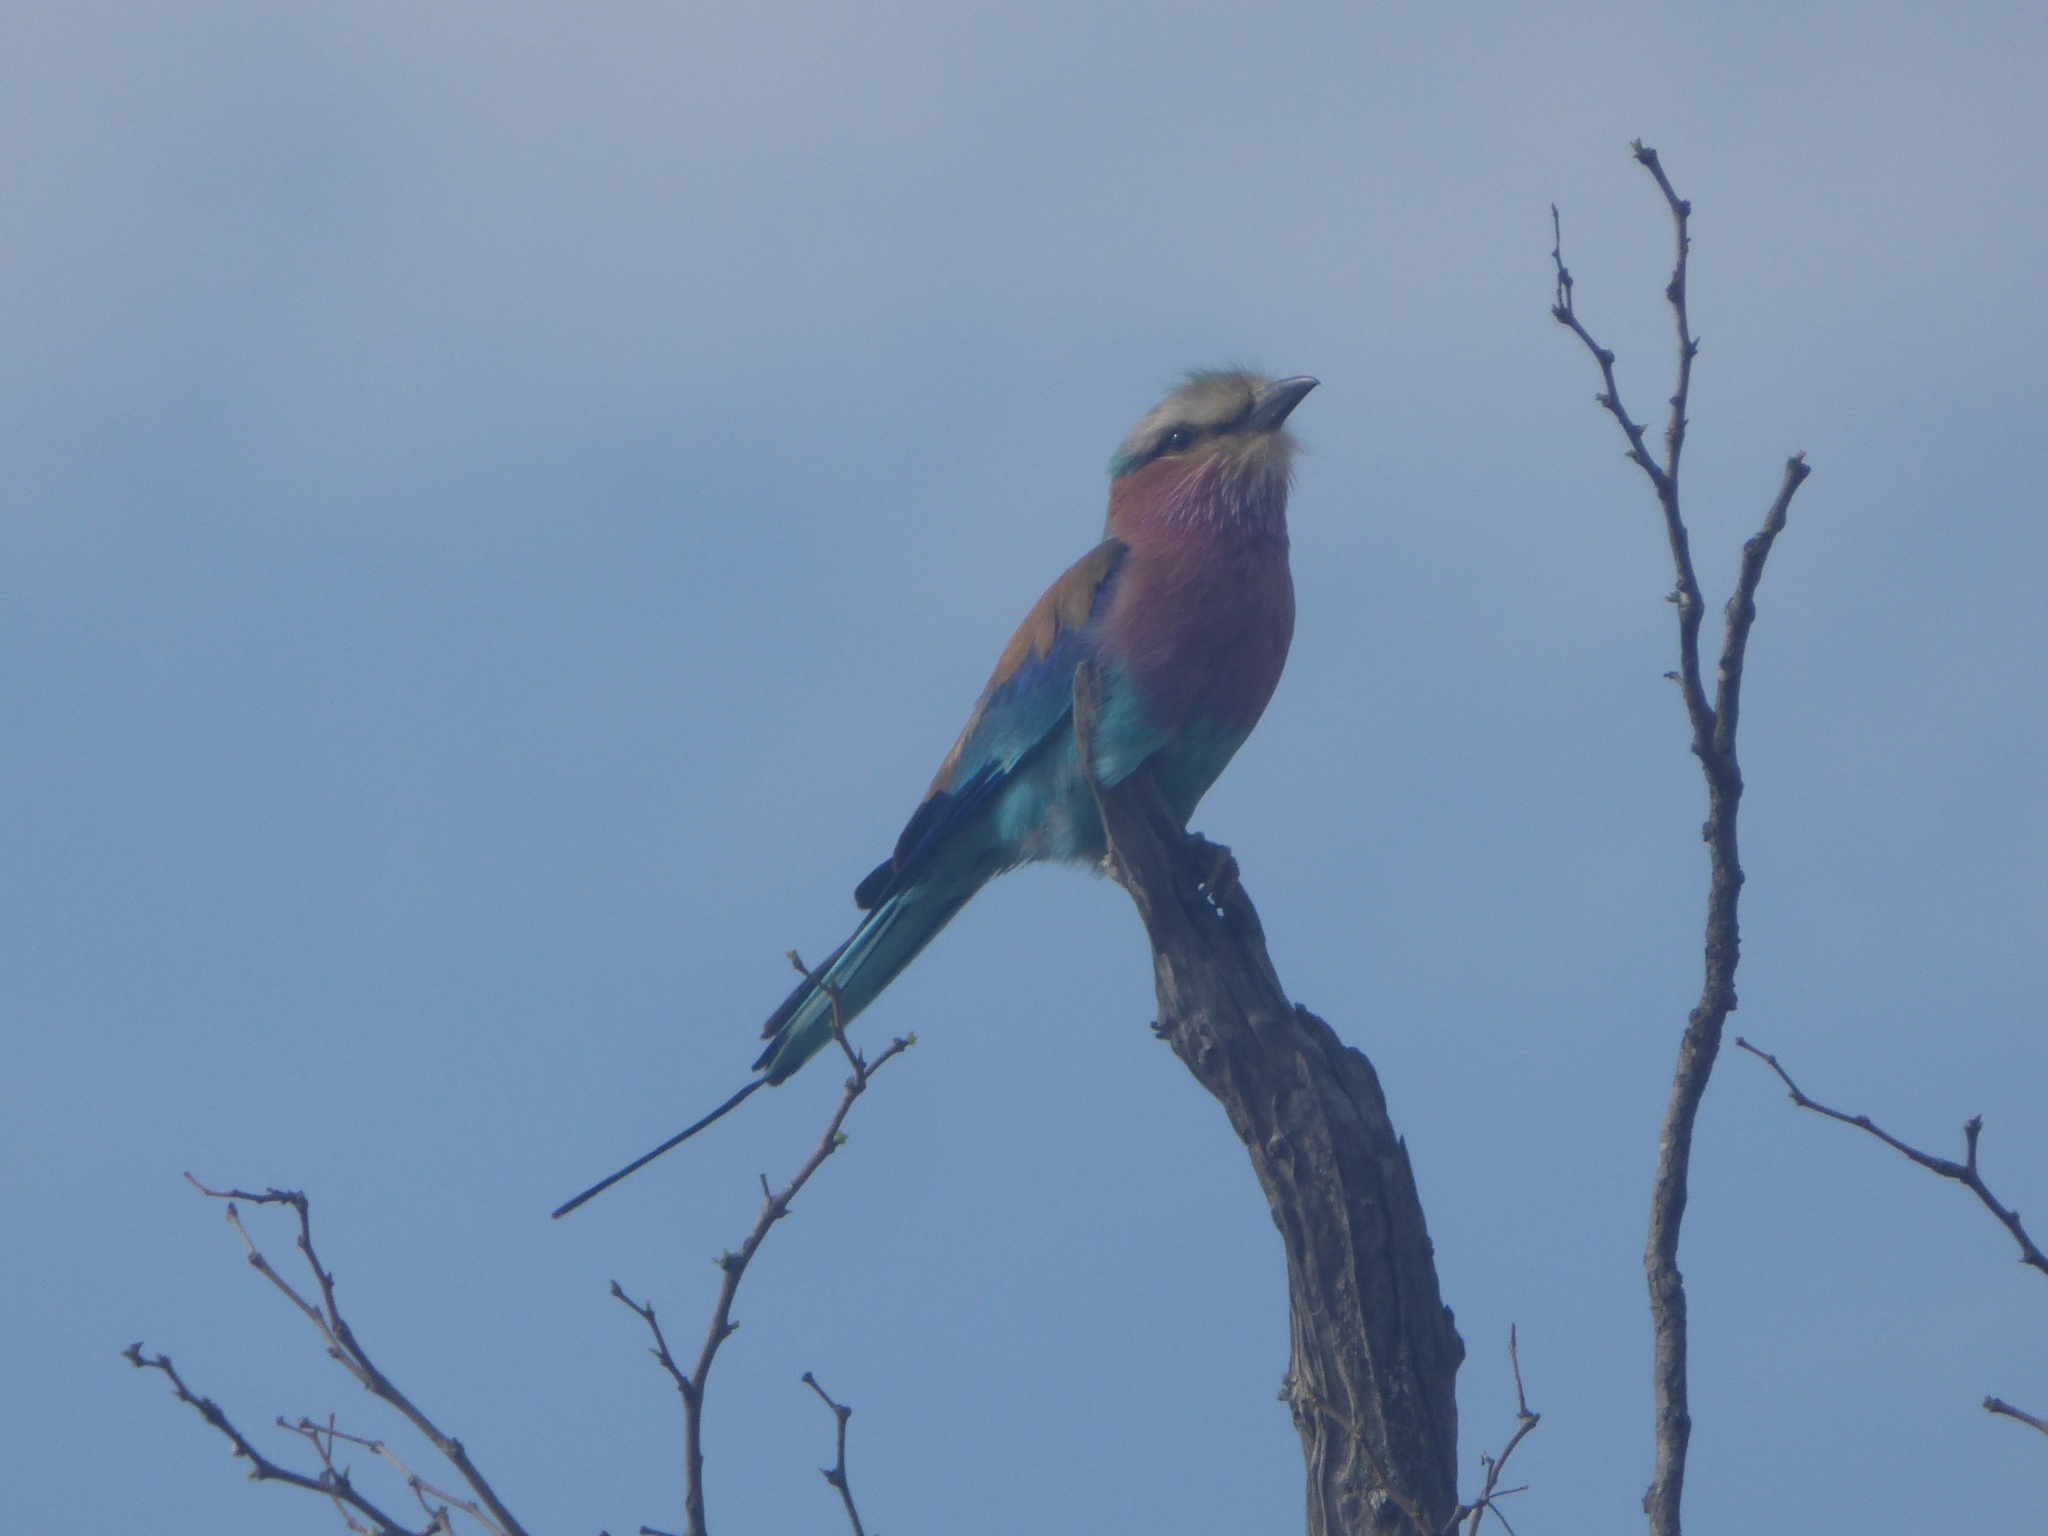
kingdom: Animalia
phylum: Chordata
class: Aves
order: Coraciiformes
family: Coraciidae
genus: Coracias
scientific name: Coracias caudatus
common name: Lilac-breasted roller
